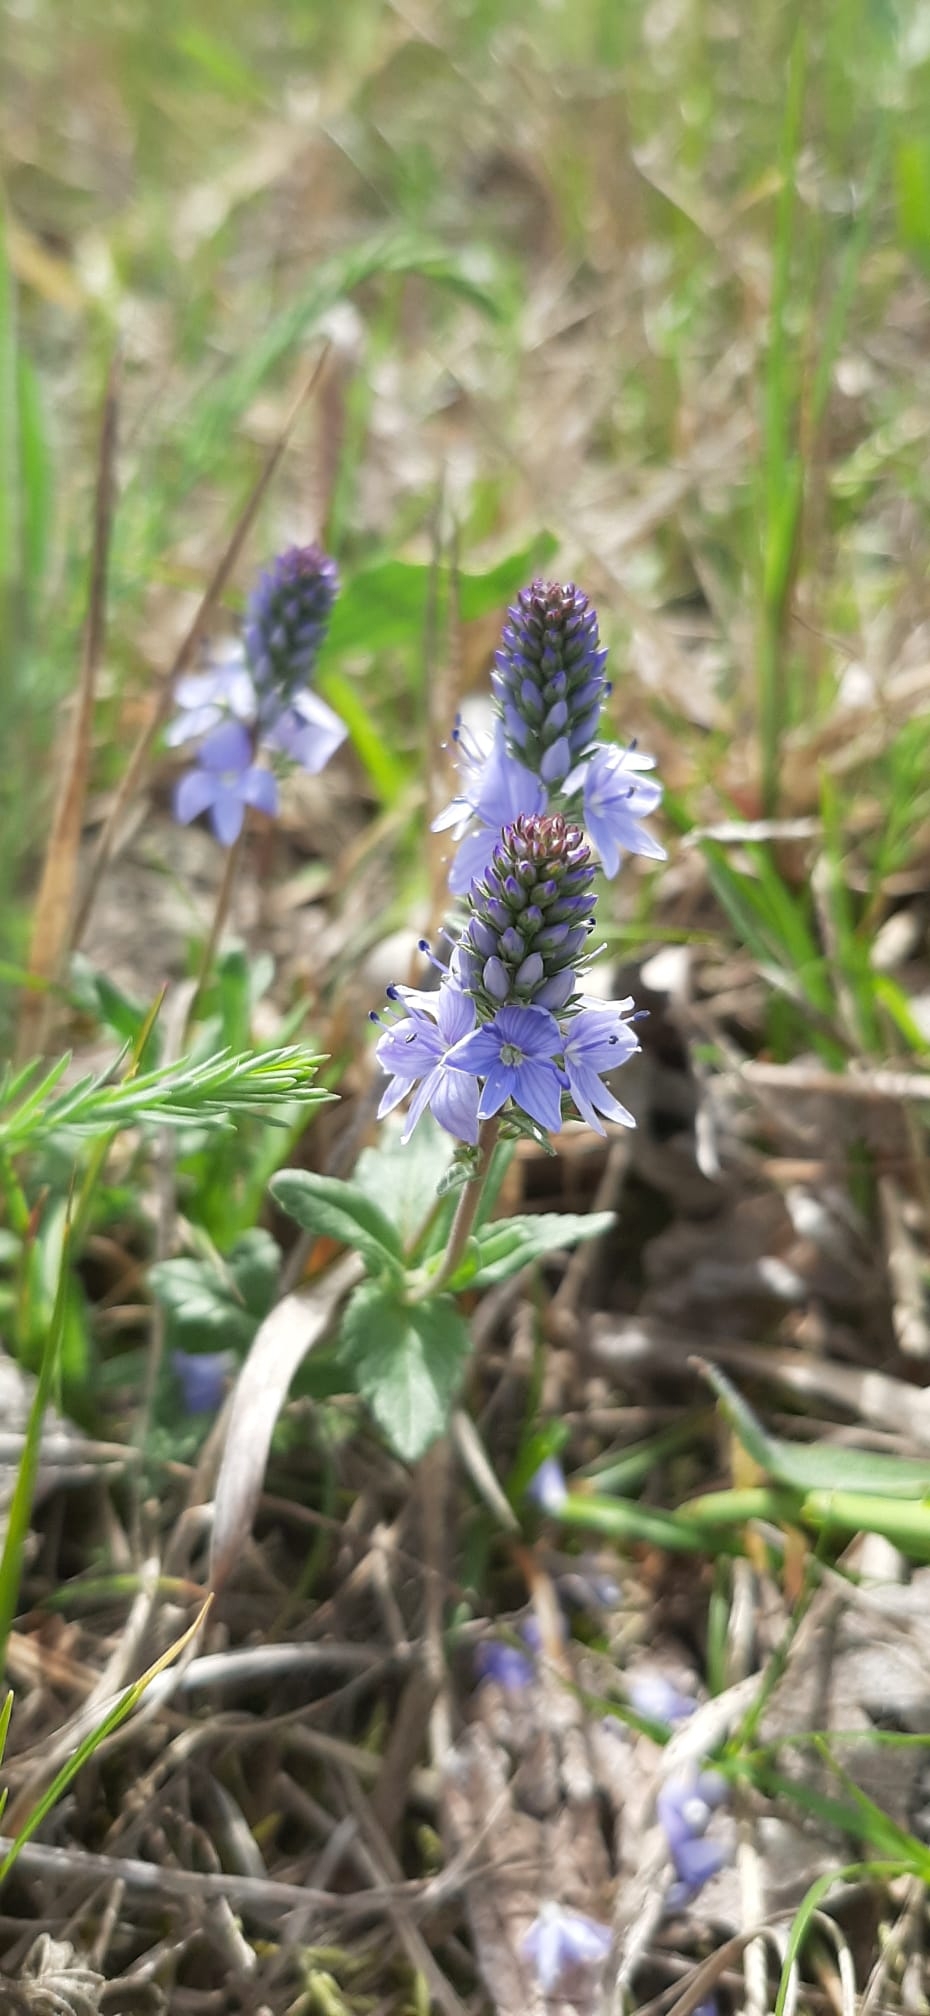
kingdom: Plantae
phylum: Tracheophyta
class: Magnoliopsida
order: Lamiales
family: Plantaginaceae
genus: Veronica
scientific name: Veronica prostrata
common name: Prostrate speedwell
